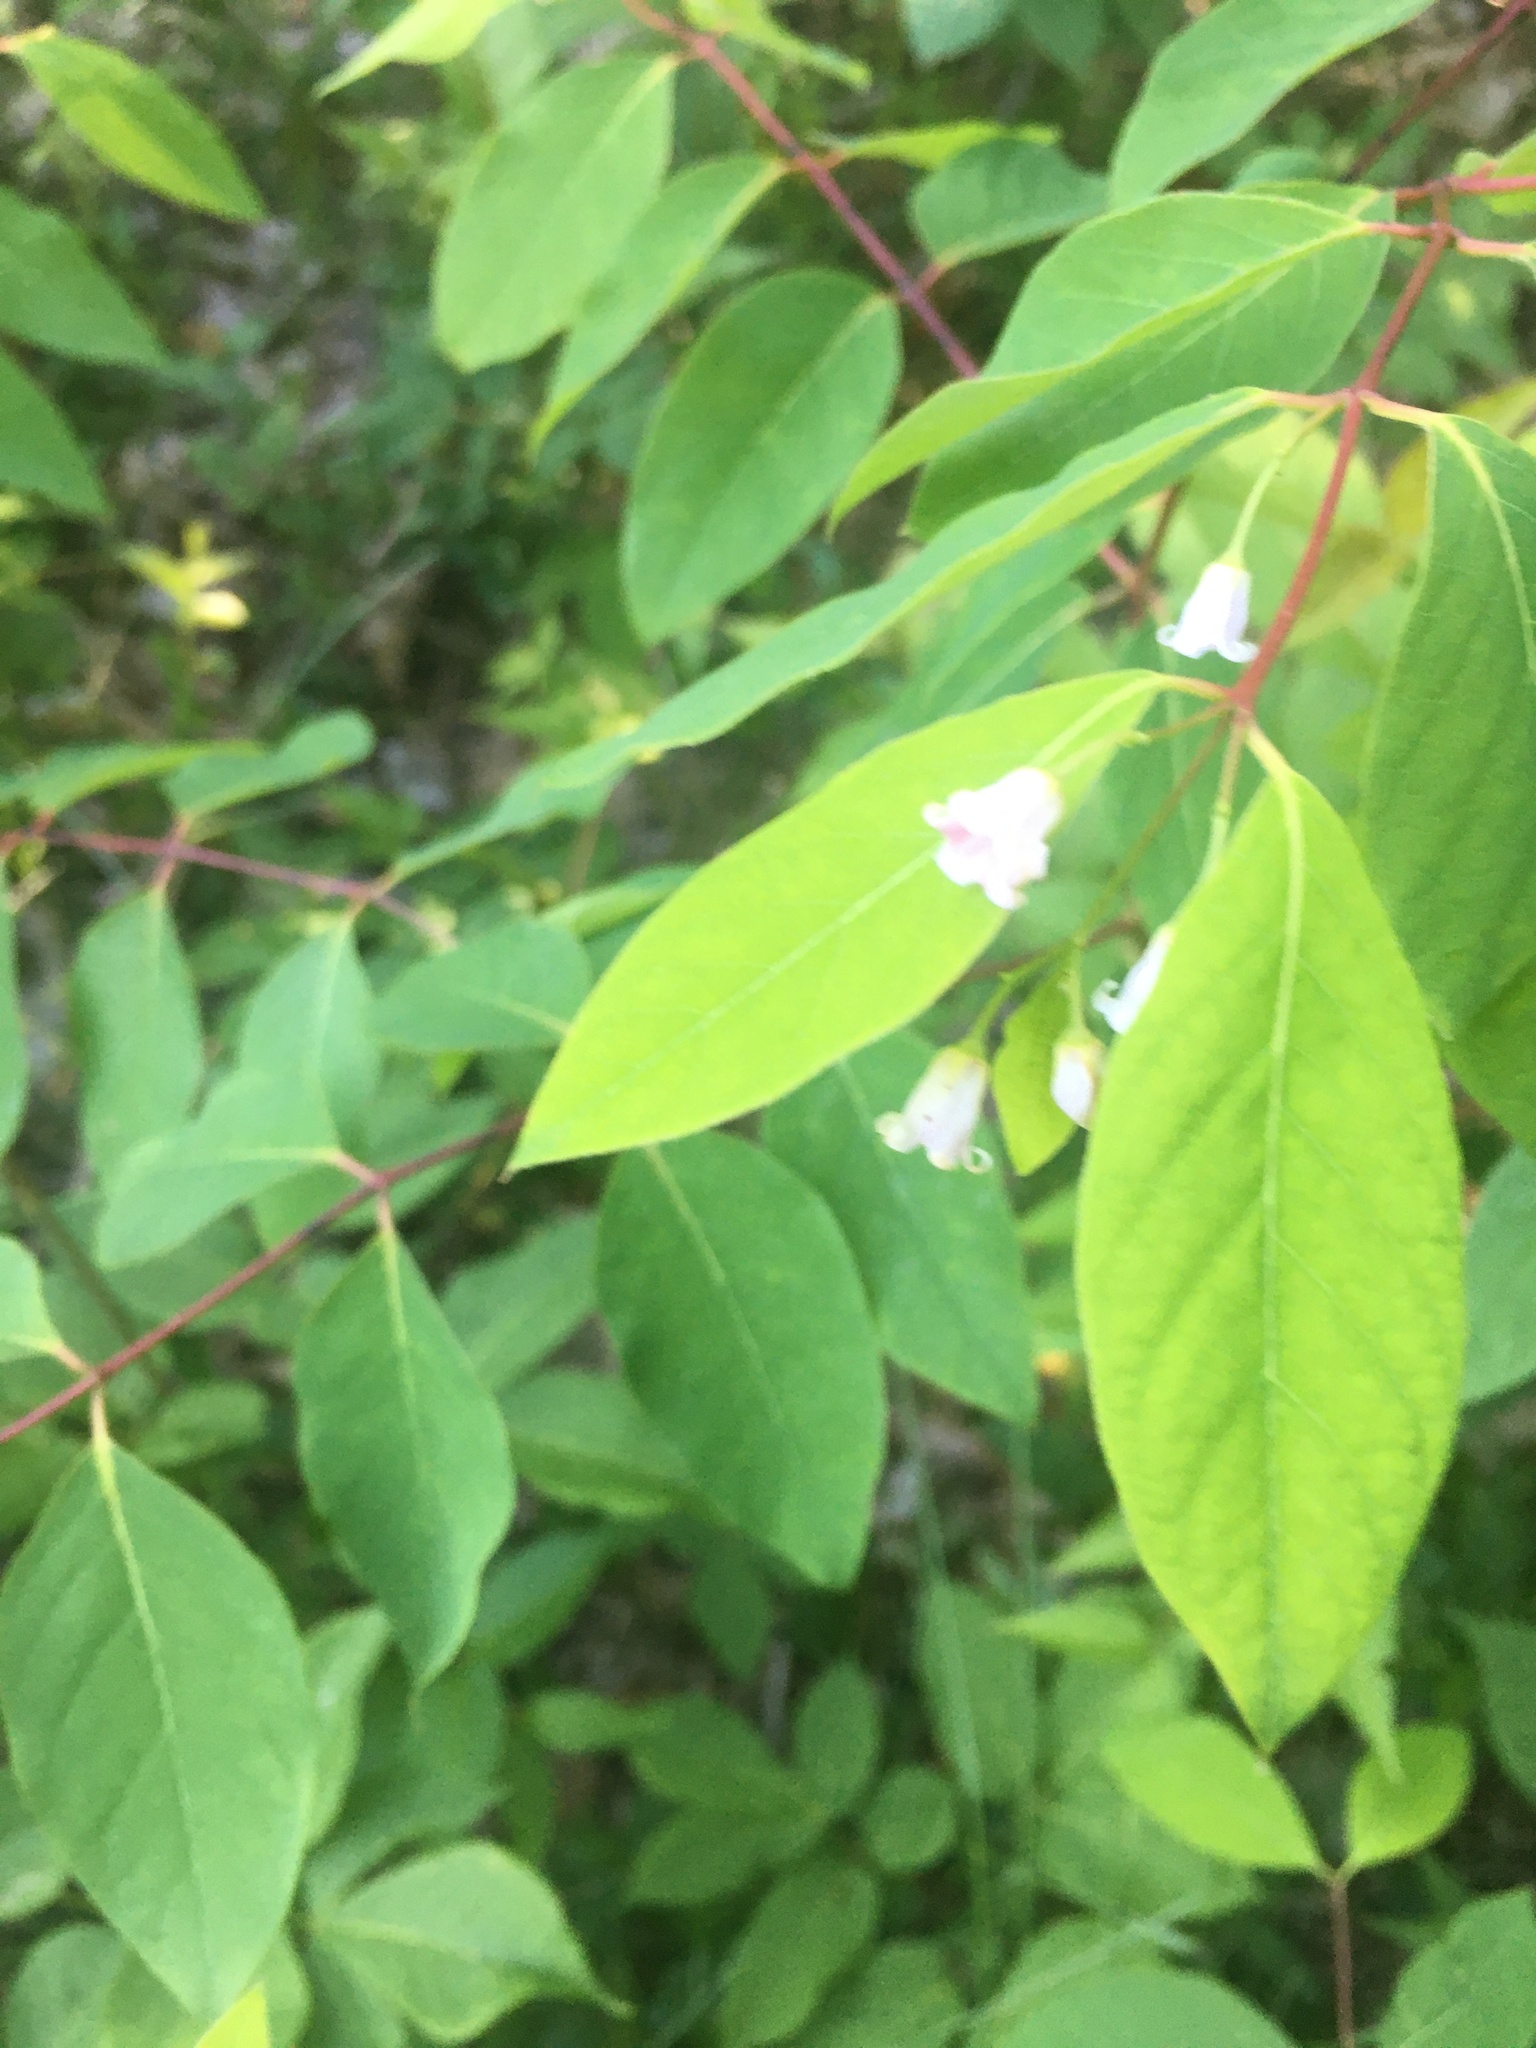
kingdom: Plantae
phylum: Tracheophyta
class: Magnoliopsida
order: Gentianales
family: Apocynaceae
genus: Apocynum
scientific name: Apocynum androsaemifolium
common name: Spreading dogbane
